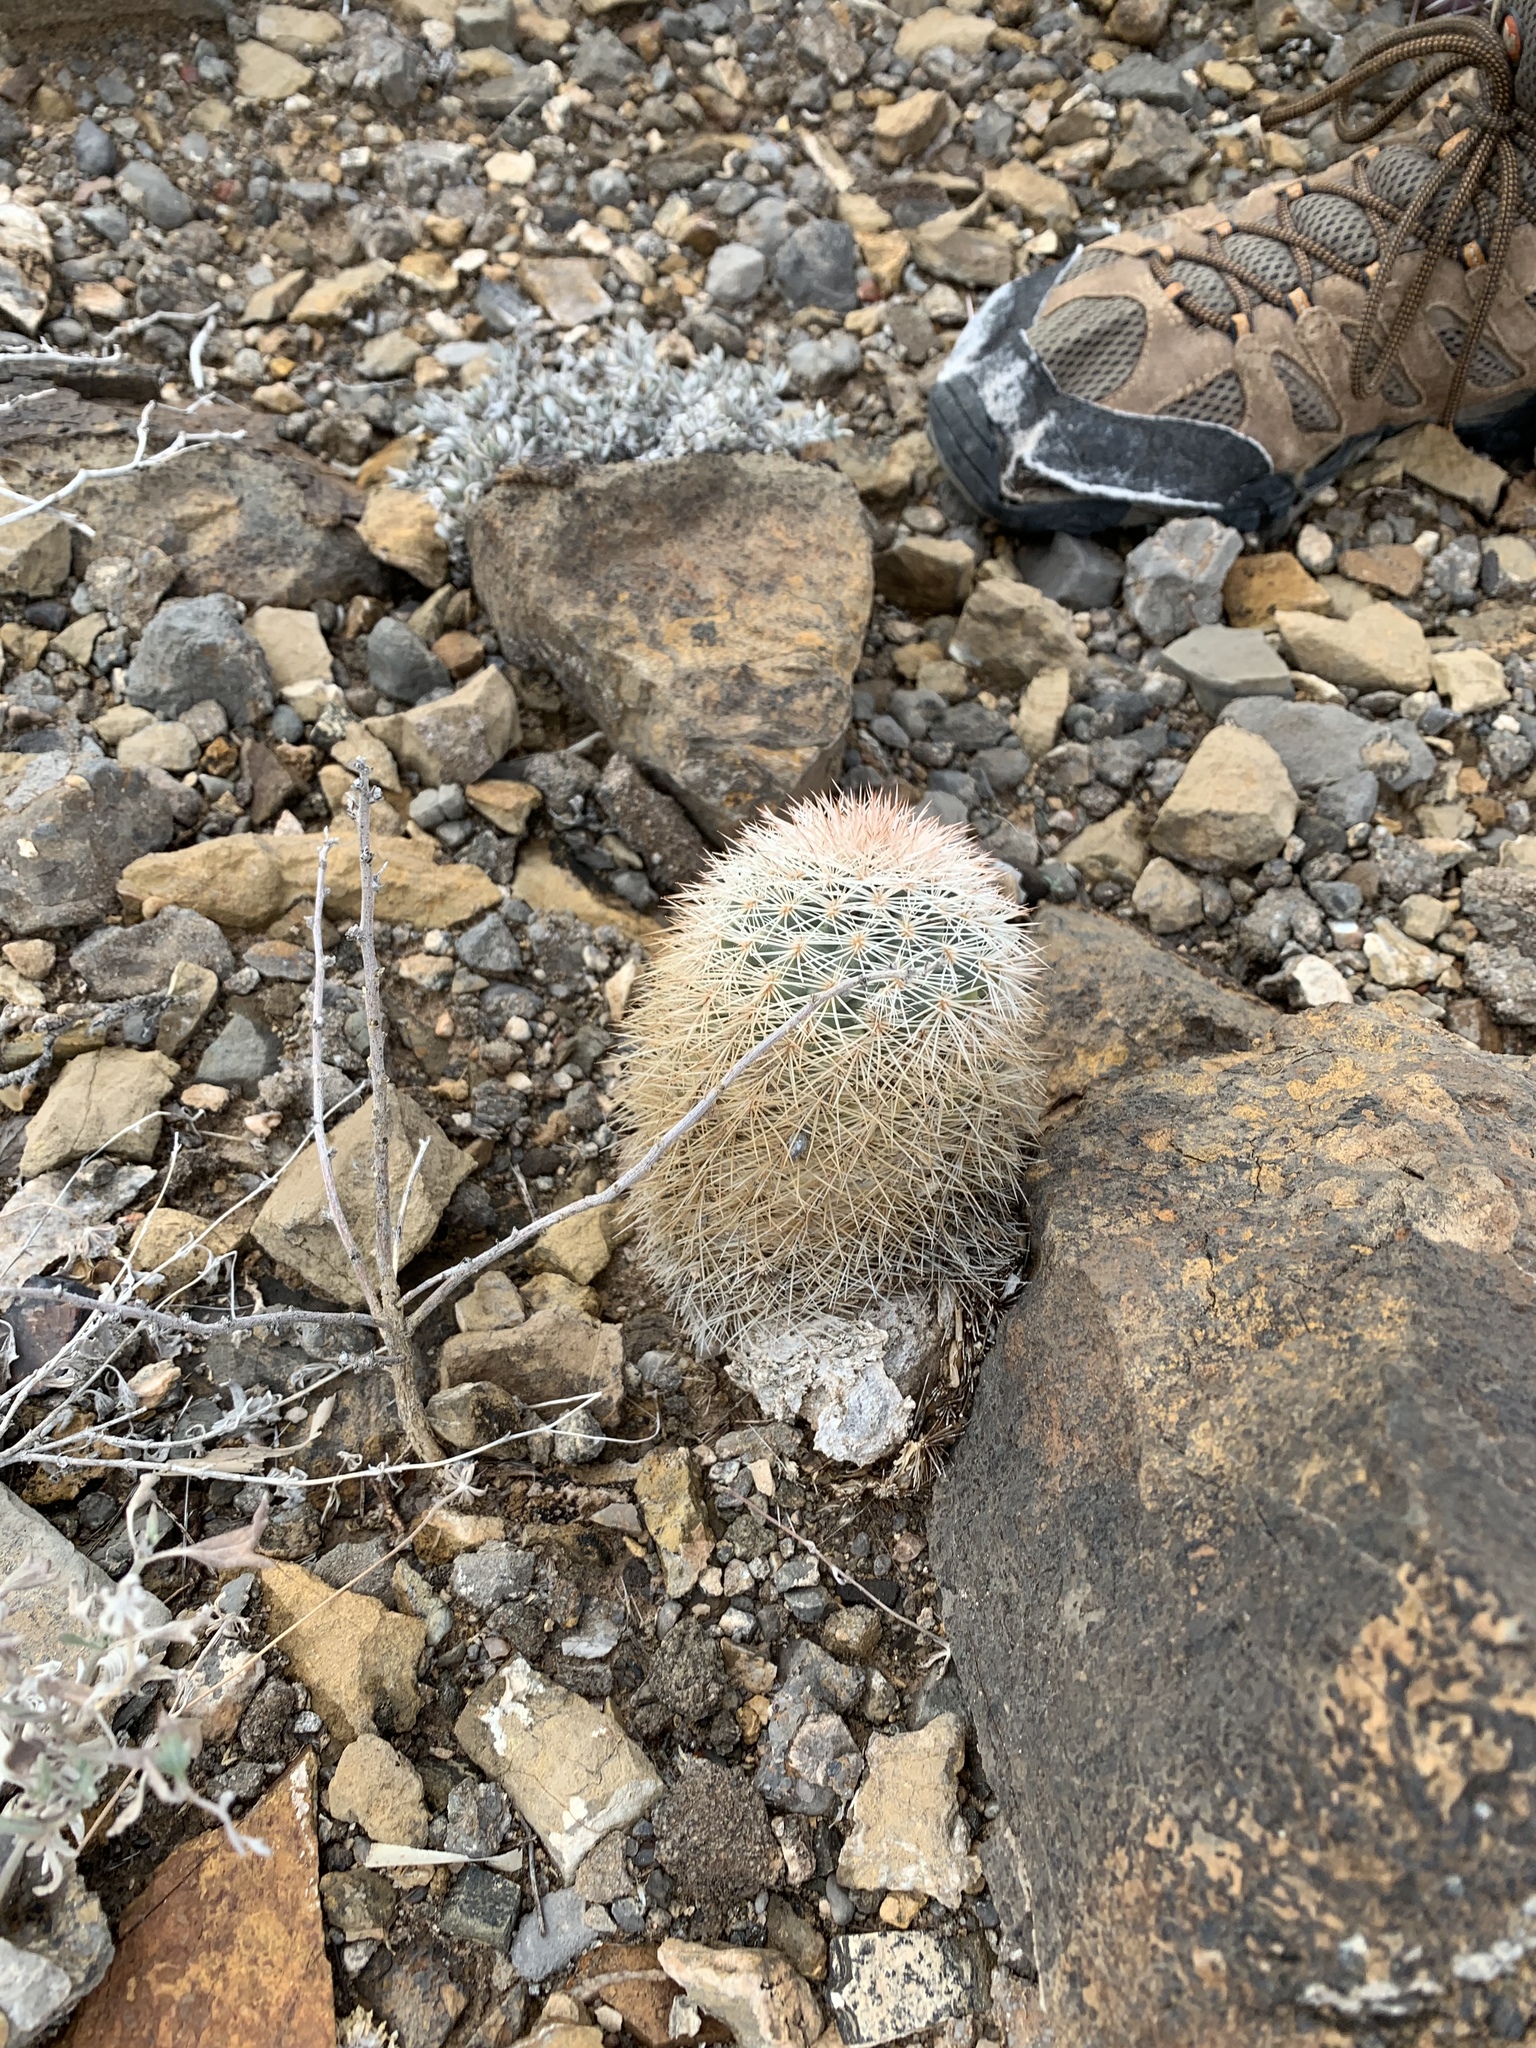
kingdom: Plantae
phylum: Tracheophyta
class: Magnoliopsida
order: Caryophyllales
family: Cactaceae
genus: Echinocereus
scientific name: Echinocereus dasyacanthus
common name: Spiny hedgehog cactus
